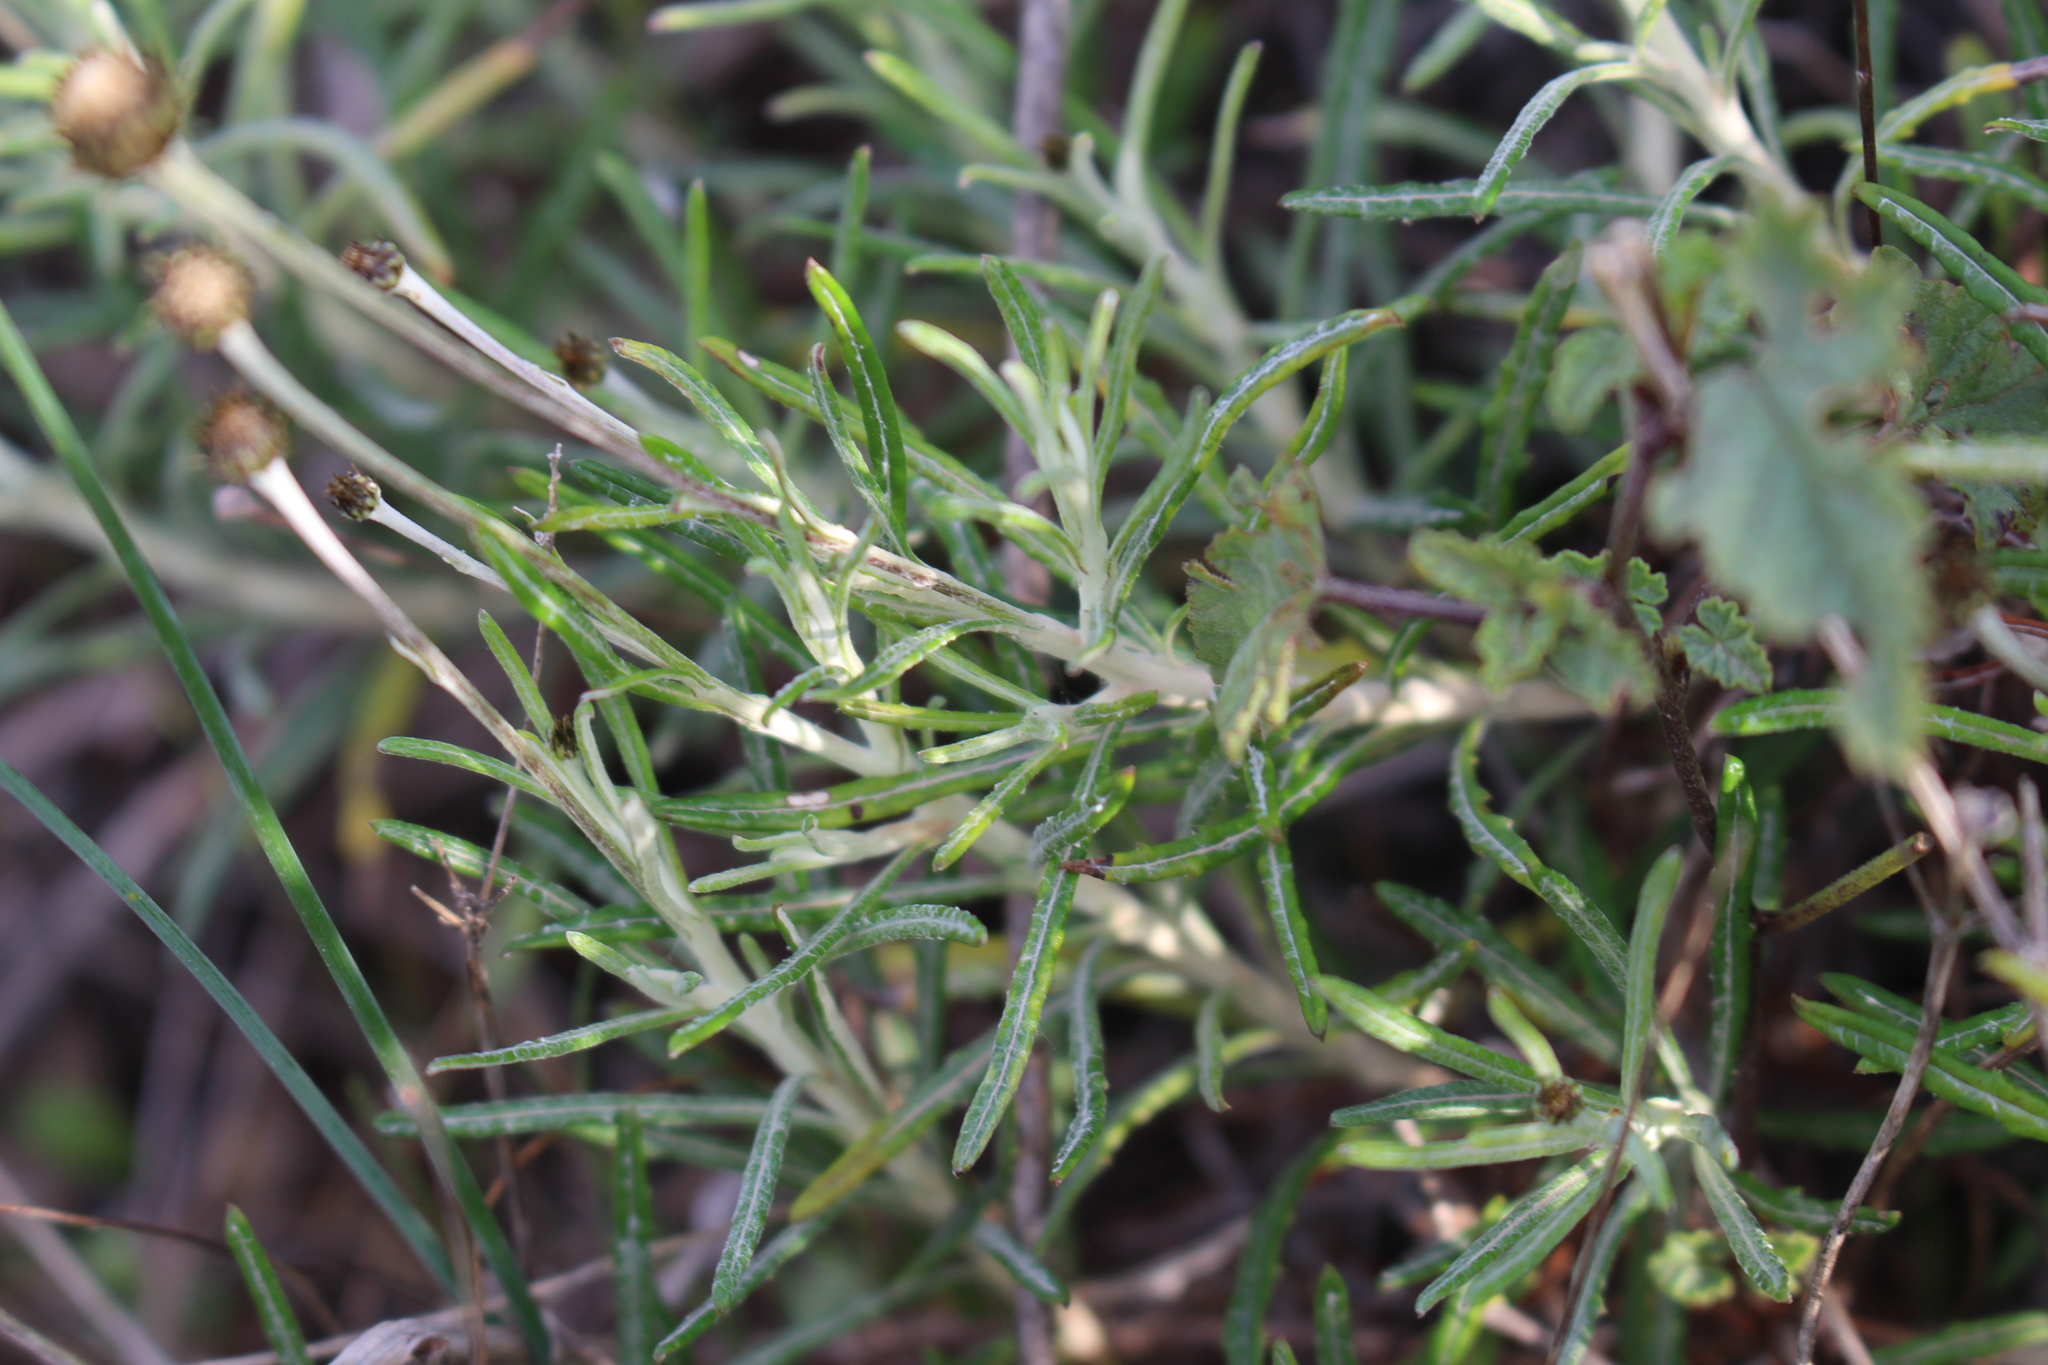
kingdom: Plantae
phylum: Tracheophyta
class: Magnoliopsida
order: Asterales
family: Asteraceae
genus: Phagnalon
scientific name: Phagnalon saxatile
